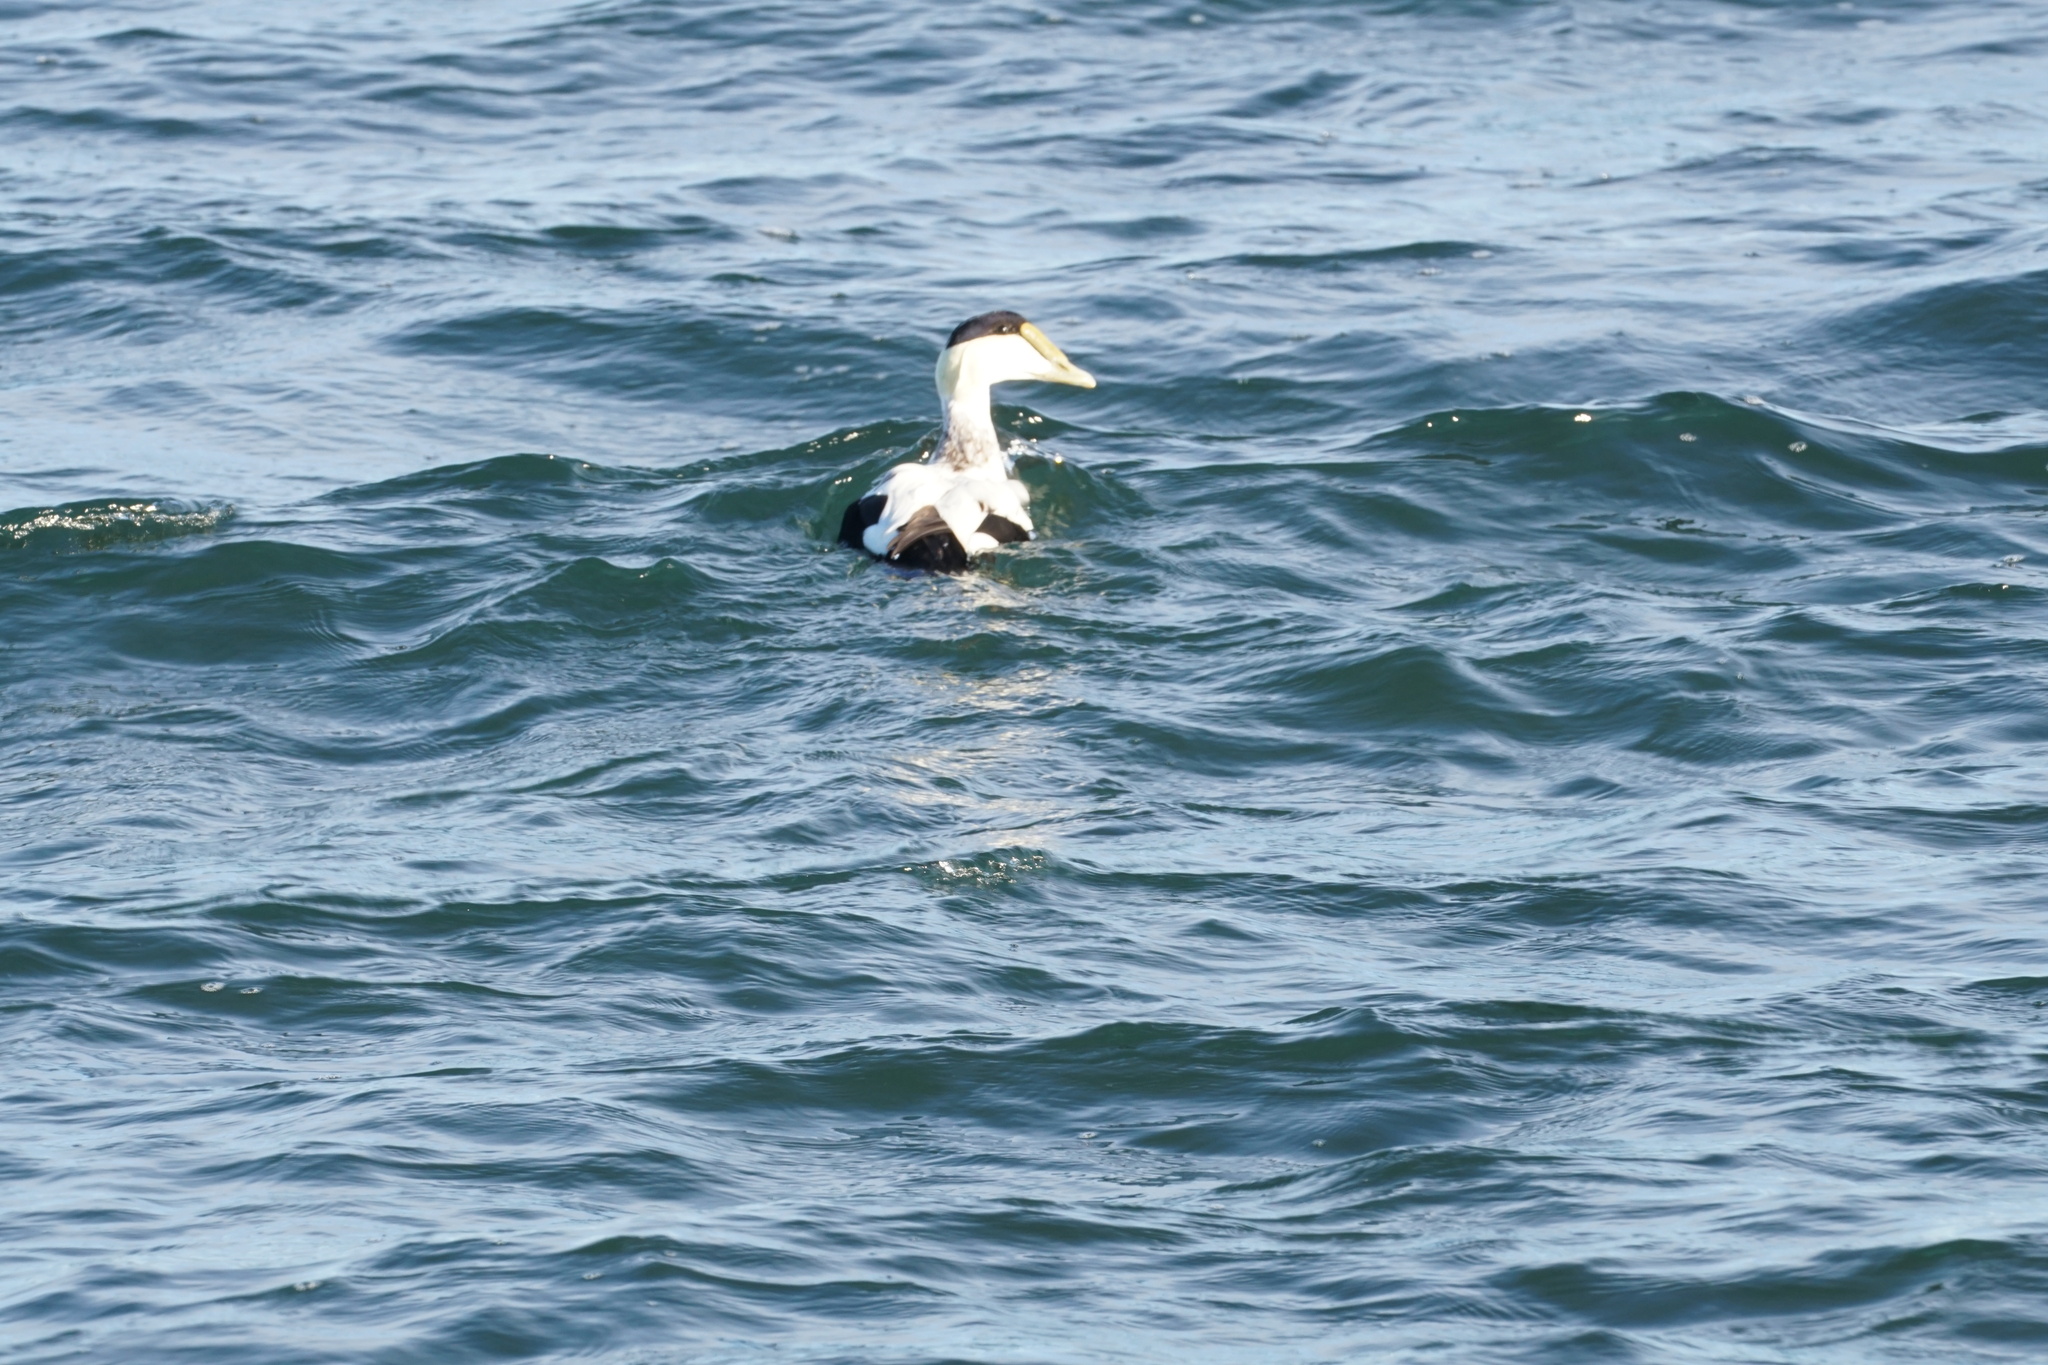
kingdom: Animalia
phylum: Chordata
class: Aves
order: Anseriformes
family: Anatidae
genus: Somateria
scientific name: Somateria mollissima
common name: Common eider
